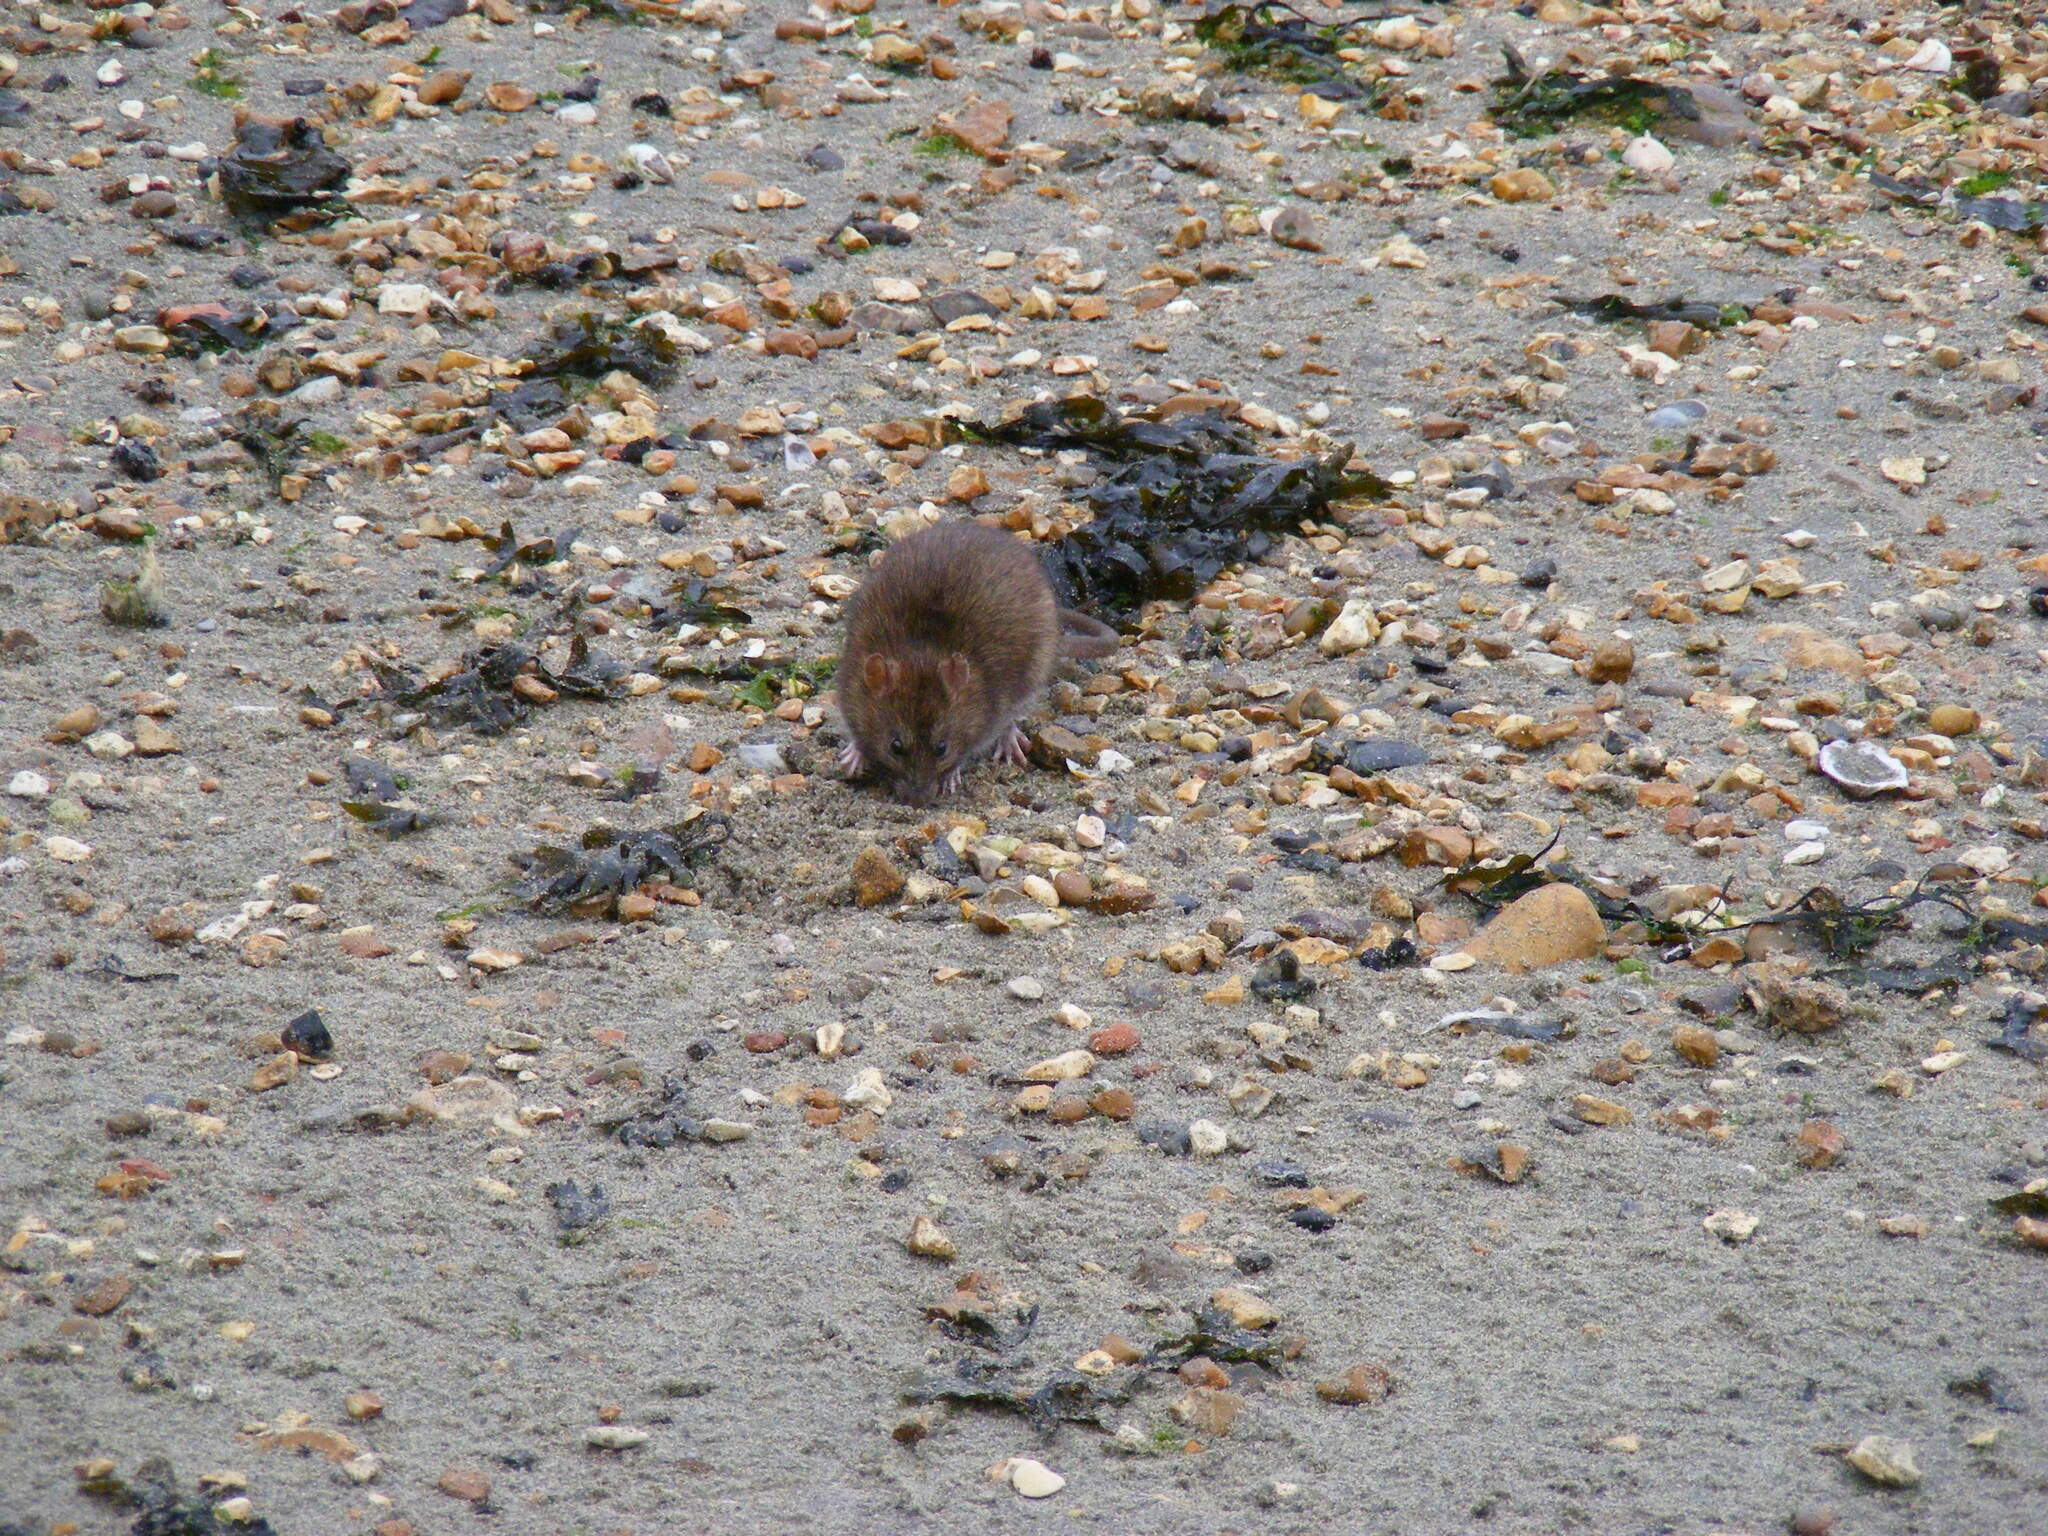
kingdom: Animalia
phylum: Chordata
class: Mammalia
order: Rodentia
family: Muridae
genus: Rattus
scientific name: Rattus norvegicus
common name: Brown rat
